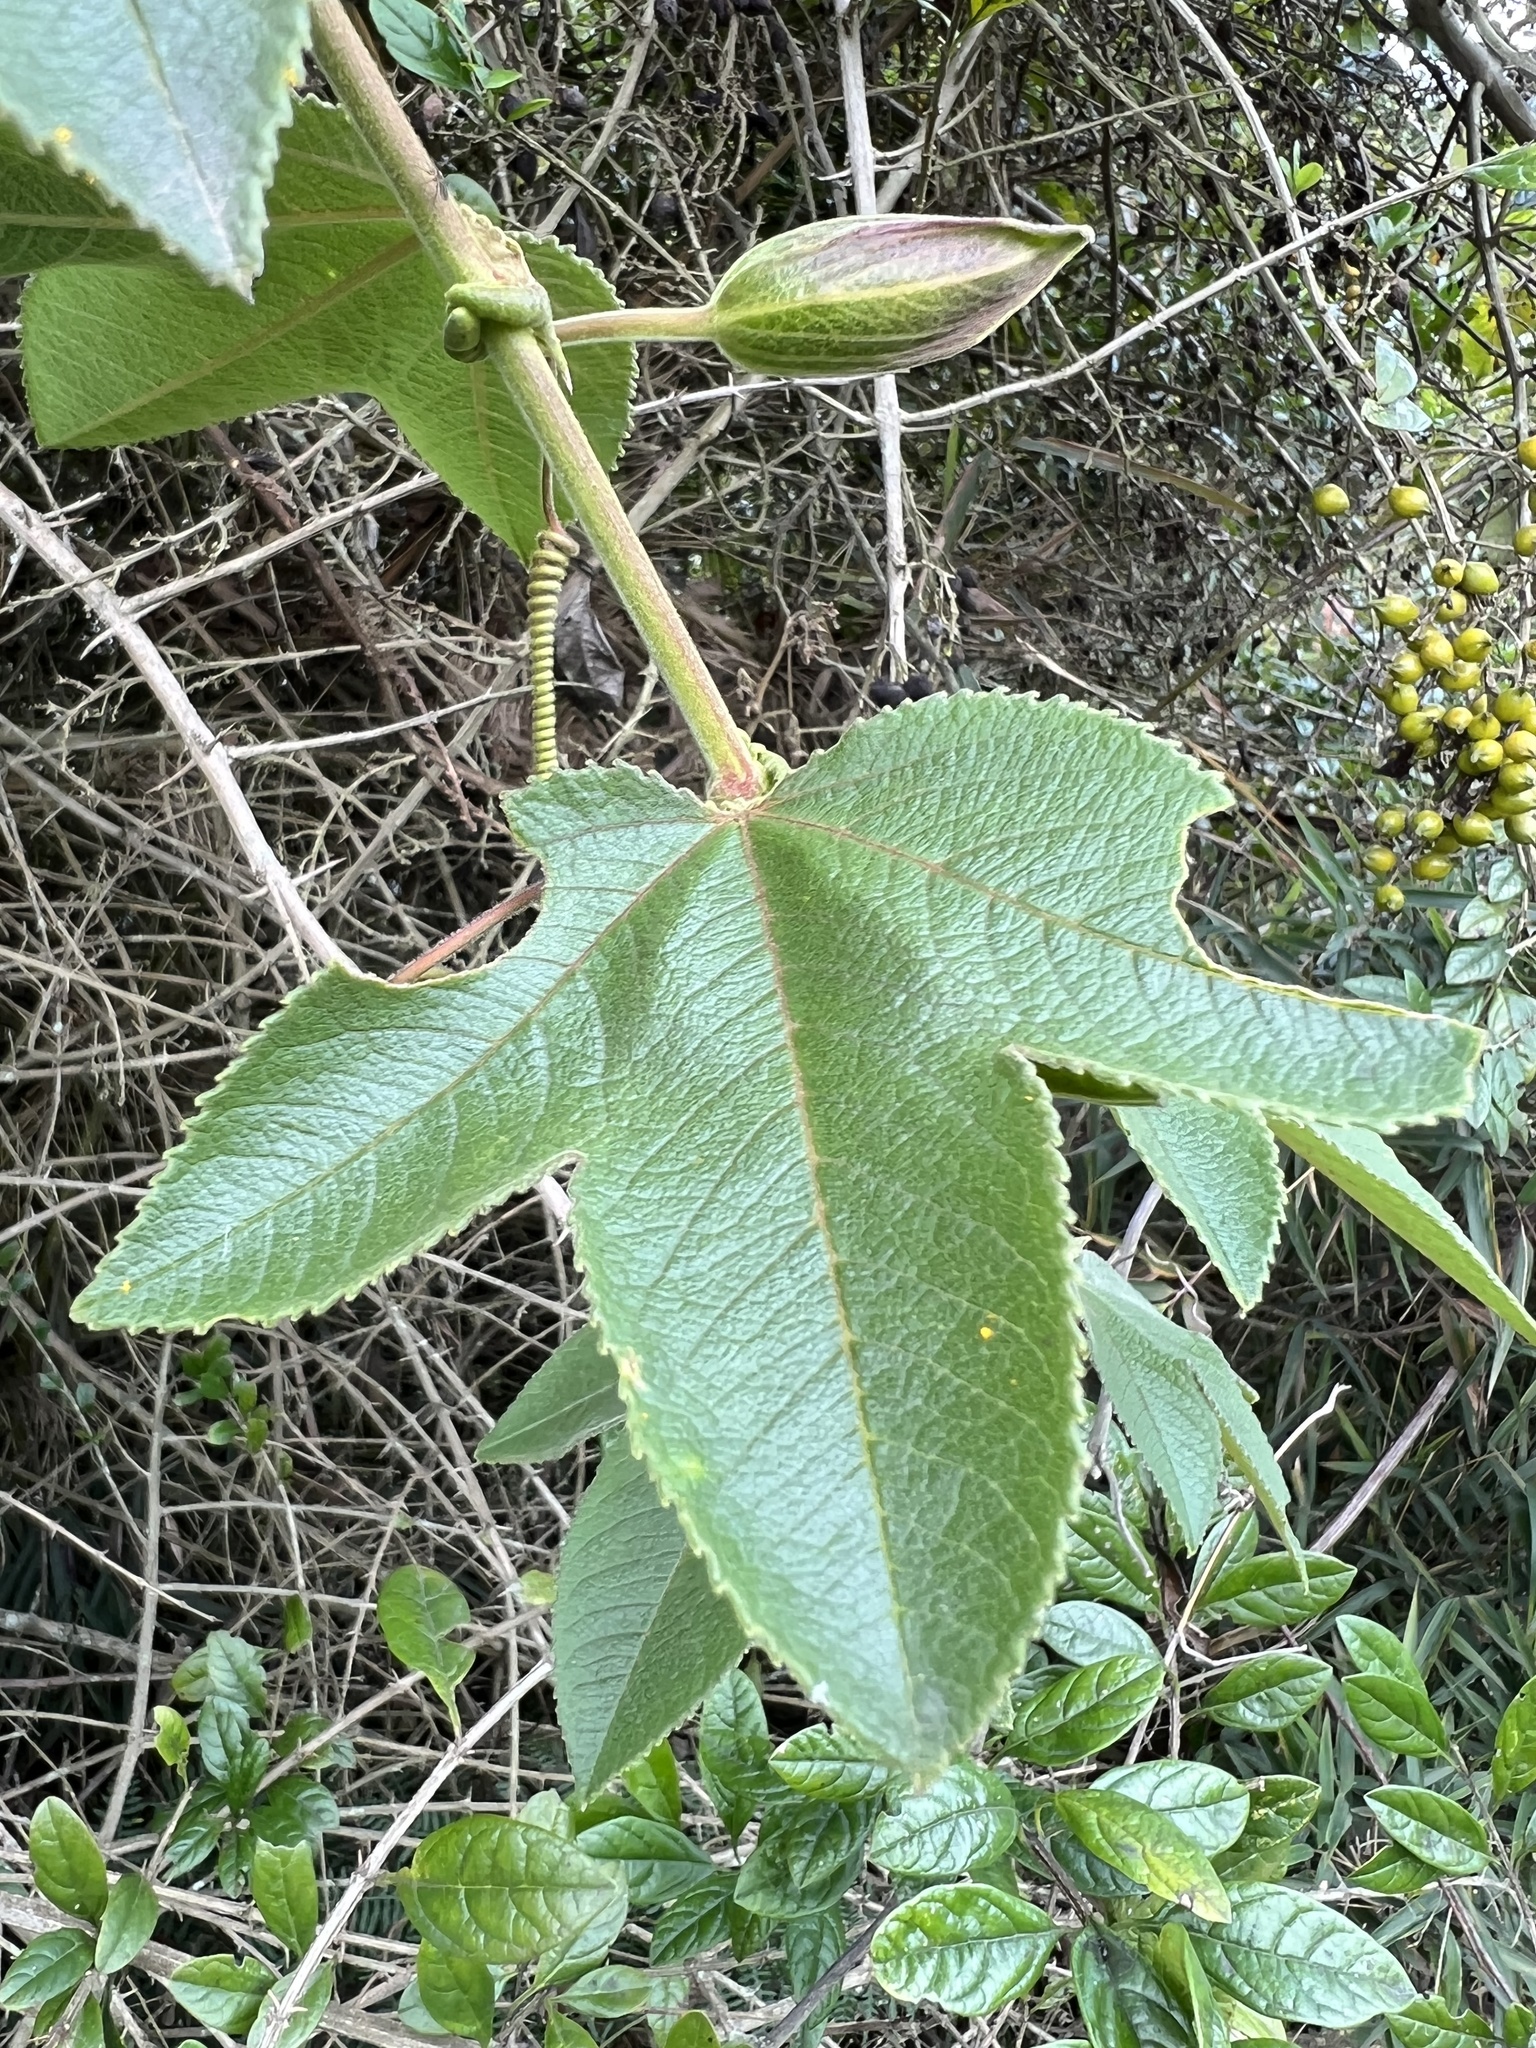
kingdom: Plantae
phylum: Tracheophyta
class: Magnoliopsida
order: Malpighiales
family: Passifloraceae
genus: Passiflora
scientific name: Passiflora tripartita
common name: Banana poka
